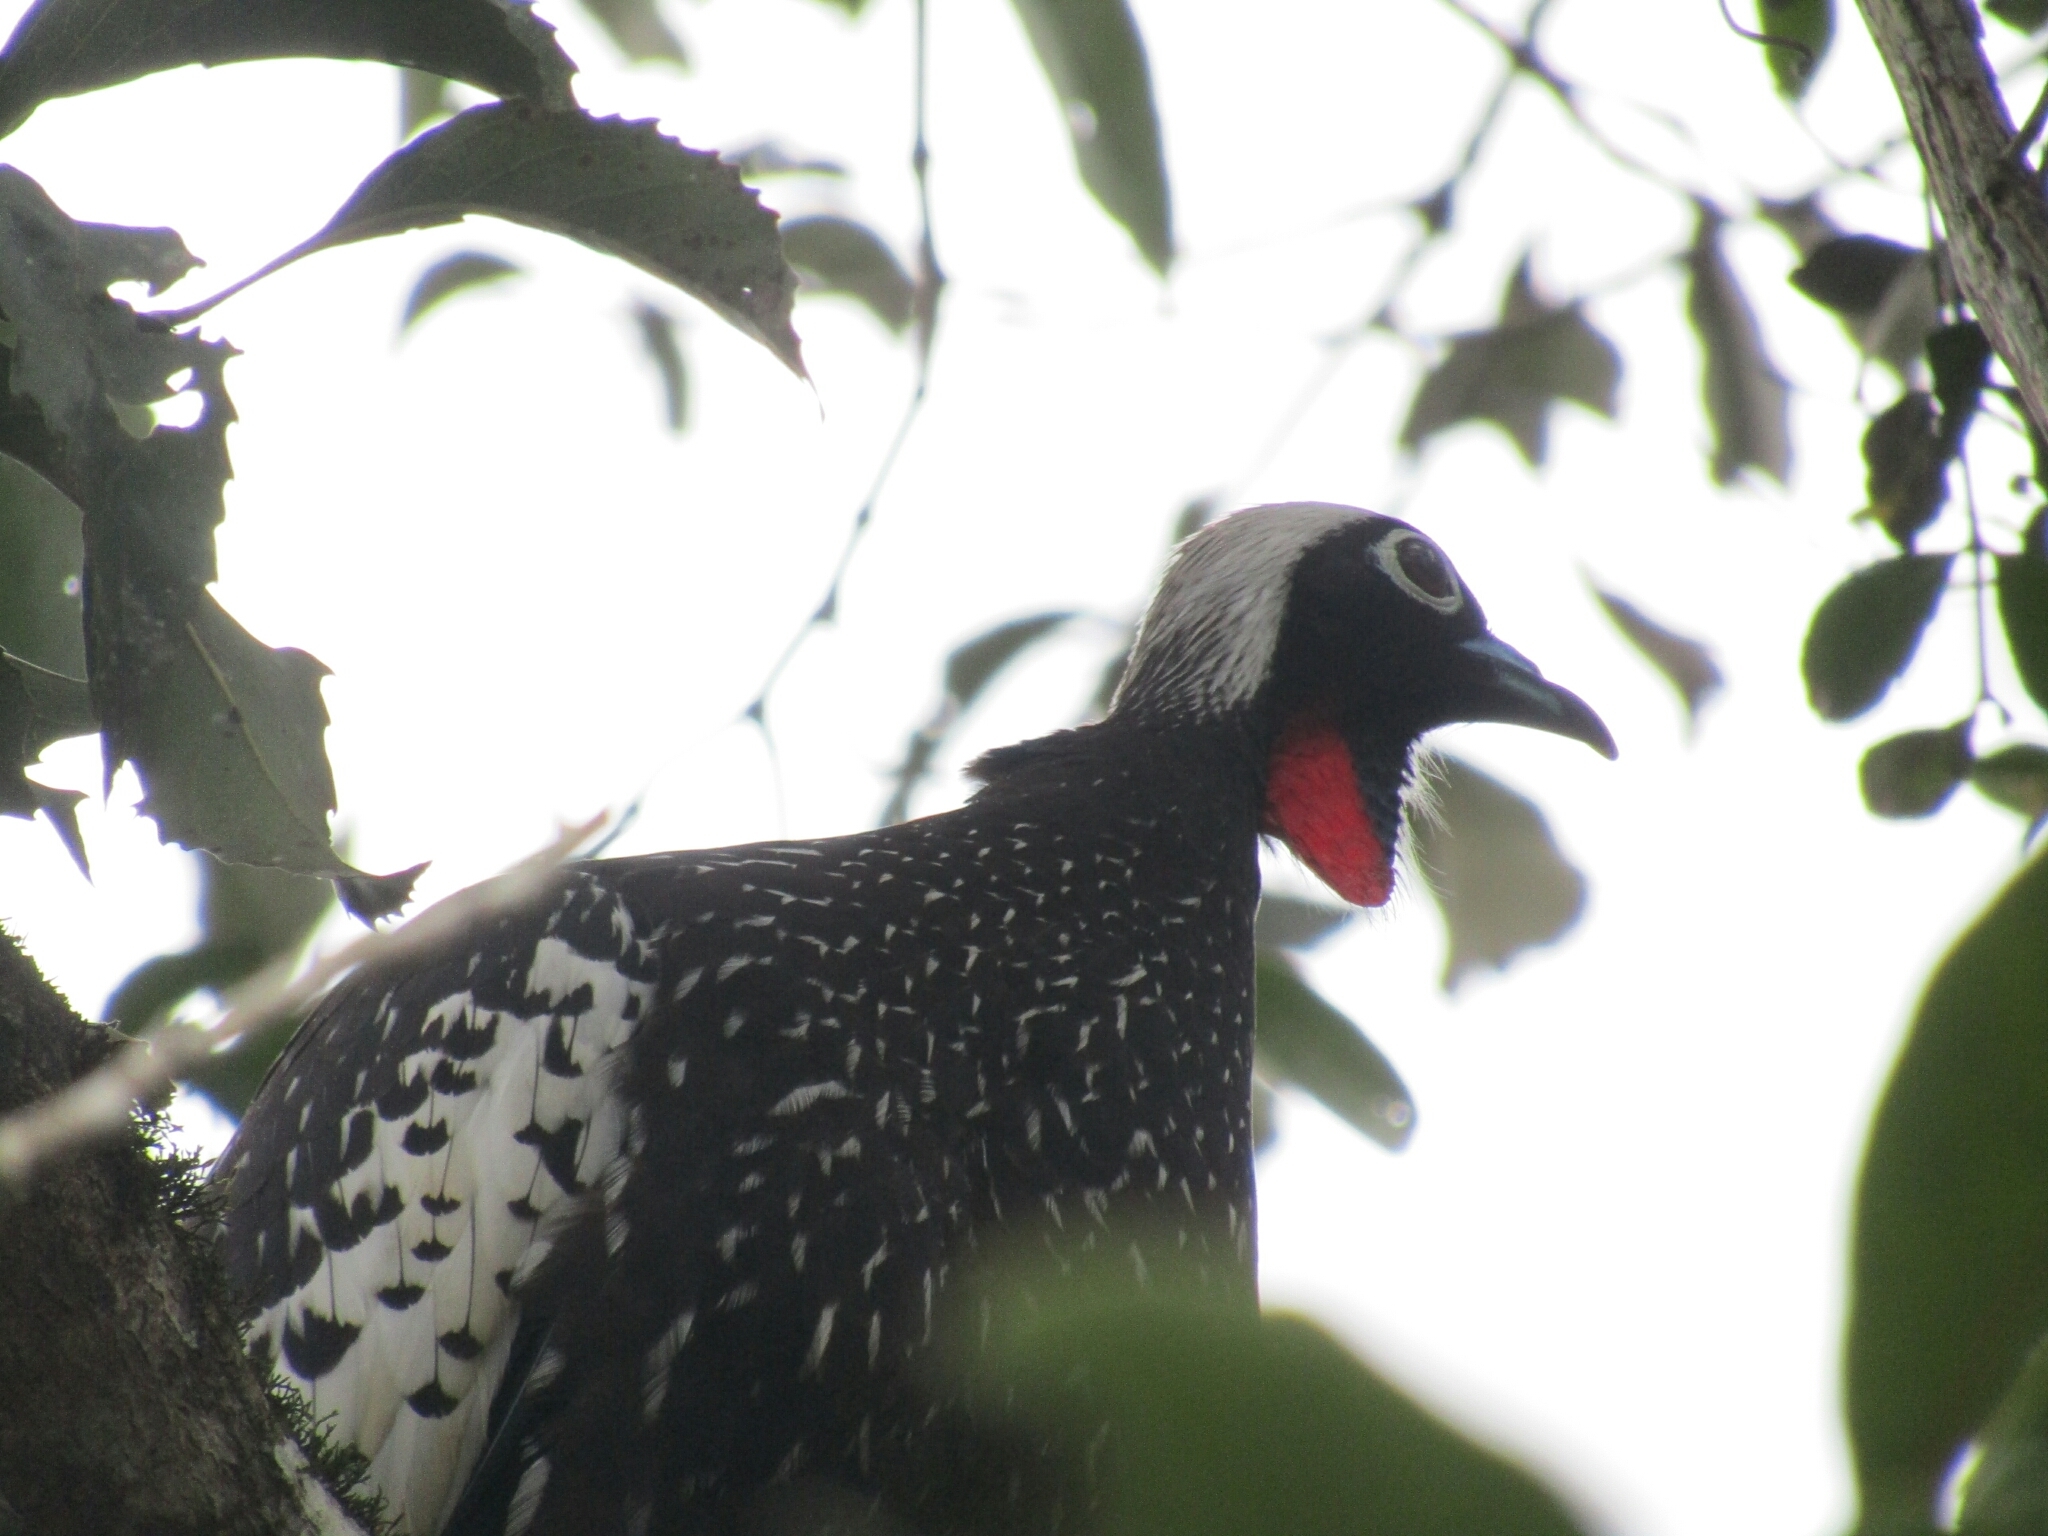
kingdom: Animalia
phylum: Chordata
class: Aves
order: Galliformes
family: Cracidae
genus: Pipile
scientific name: Pipile jacutinga
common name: Black-fronted piping-guan
